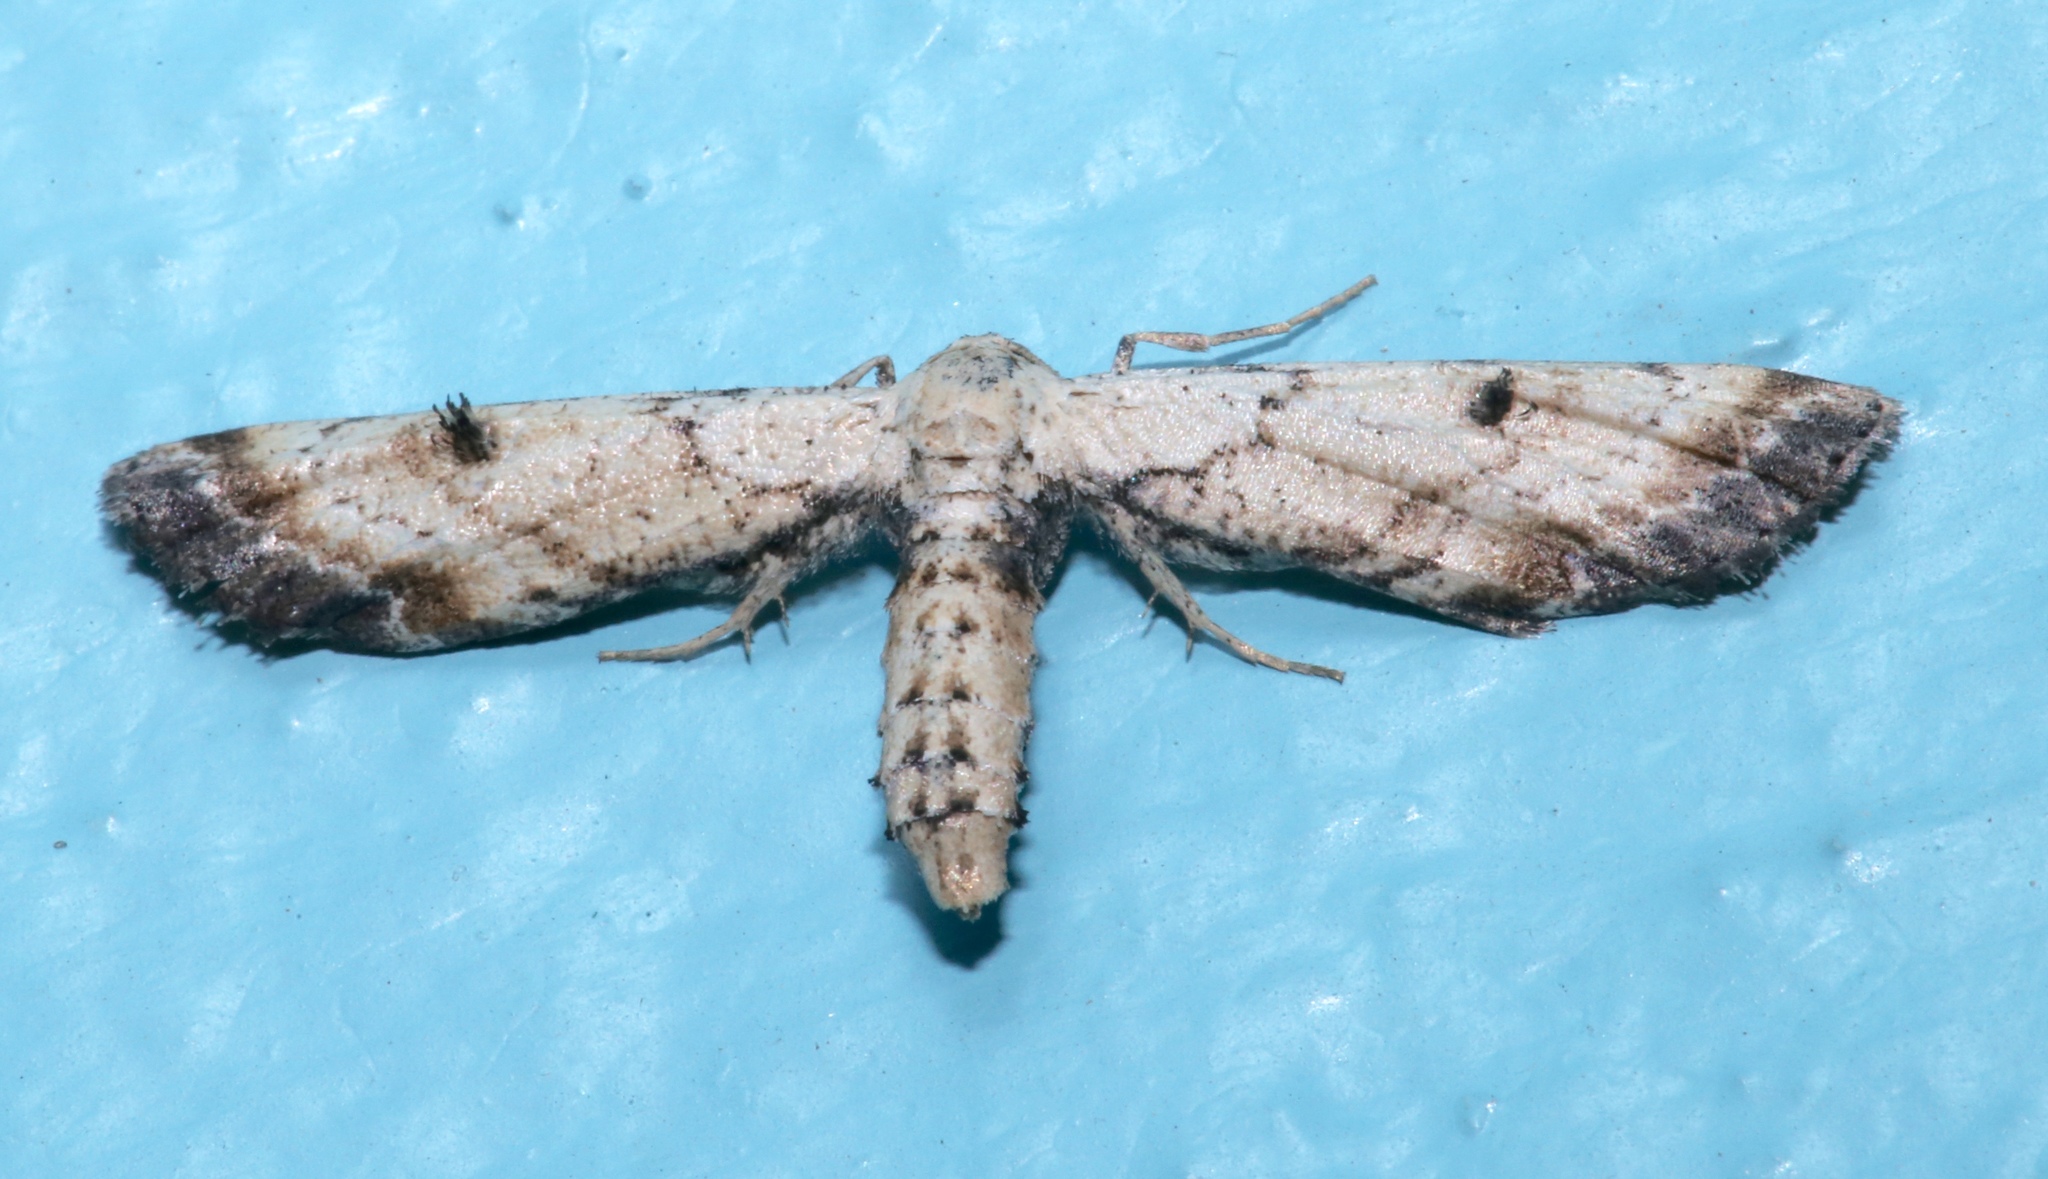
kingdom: Animalia
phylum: Arthropoda
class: Insecta
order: Lepidoptera
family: Geometridae
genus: Tornos
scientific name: Tornos scolopacinaria
